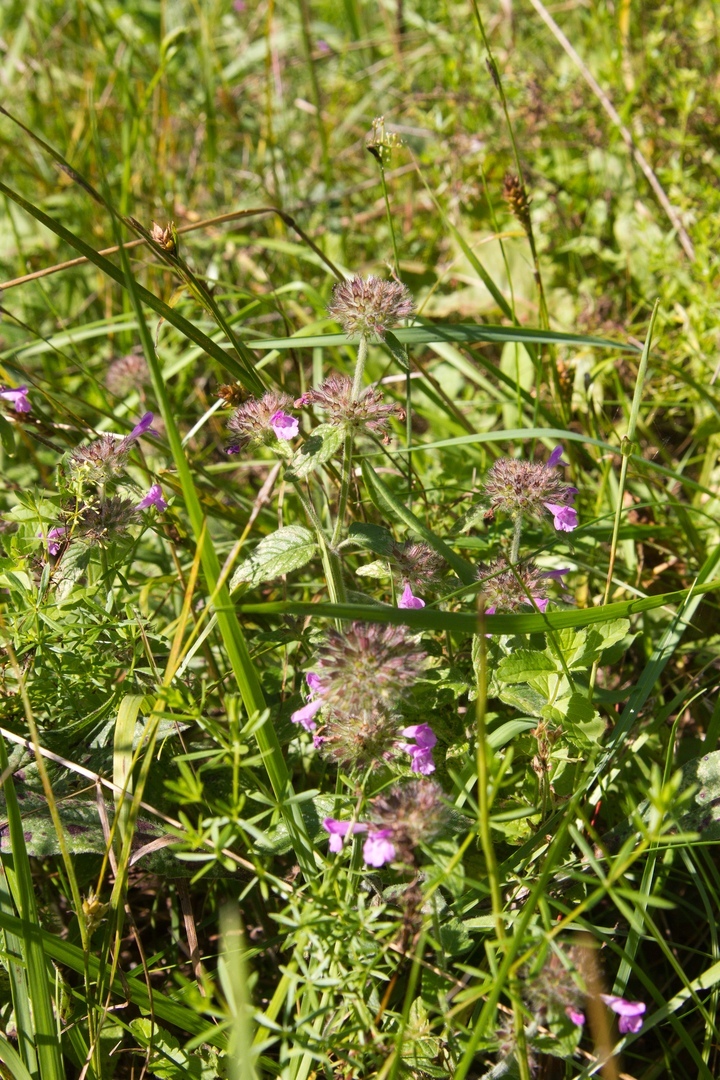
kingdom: Plantae
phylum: Tracheophyta
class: Magnoliopsida
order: Lamiales
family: Lamiaceae
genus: Clinopodium
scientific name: Clinopodium vulgare
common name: Wild basil
